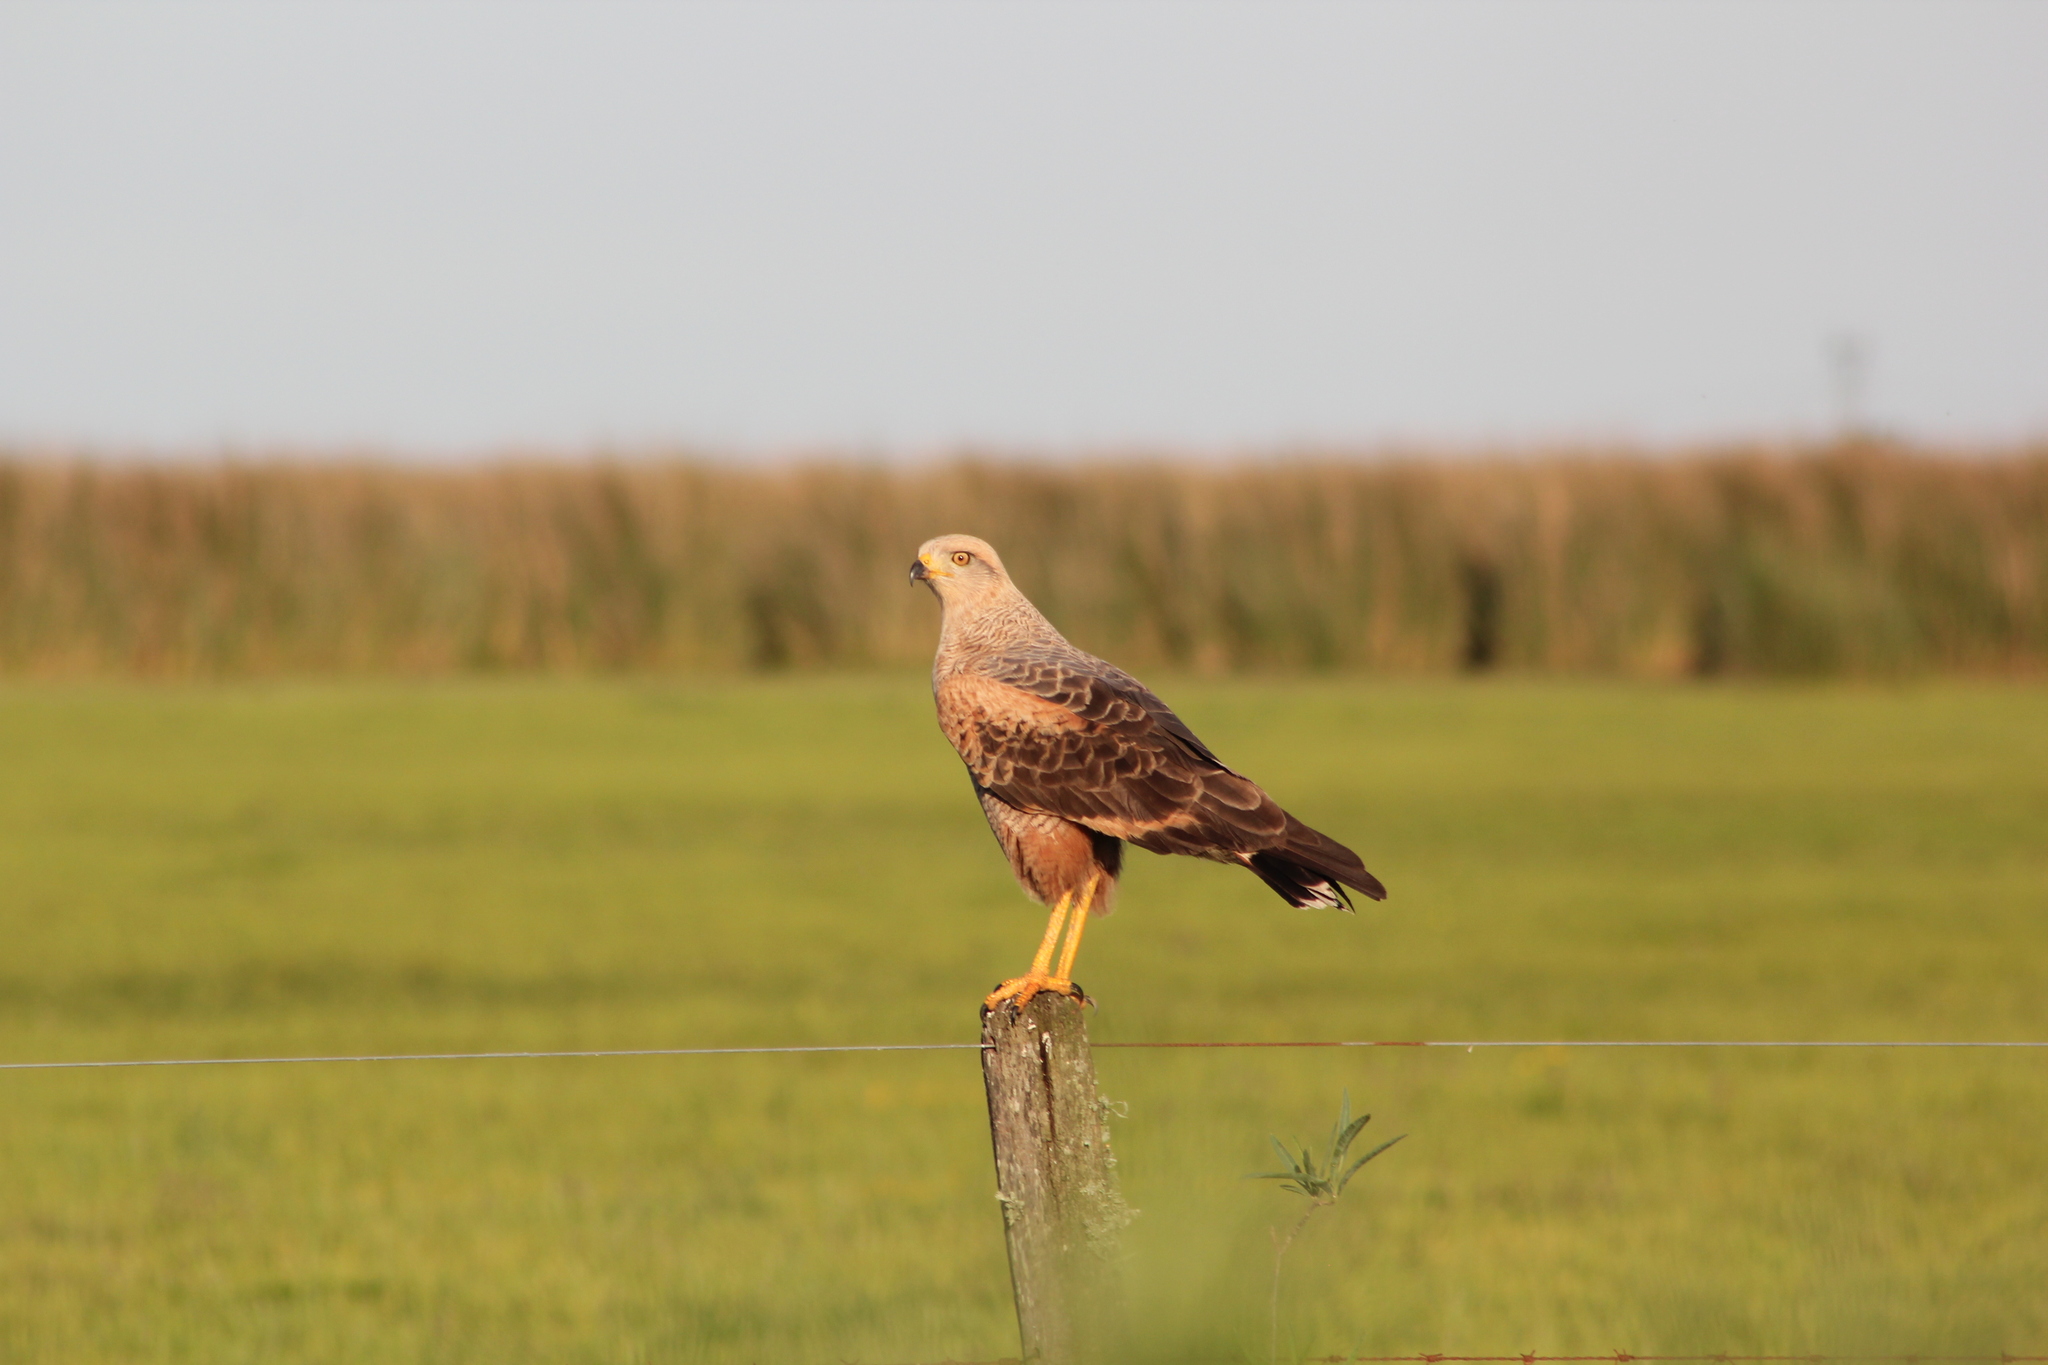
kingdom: Animalia
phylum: Chordata
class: Aves
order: Accipitriformes
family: Accipitridae
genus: Buteogallus
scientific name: Buteogallus meridionalis
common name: Savanna hawk
